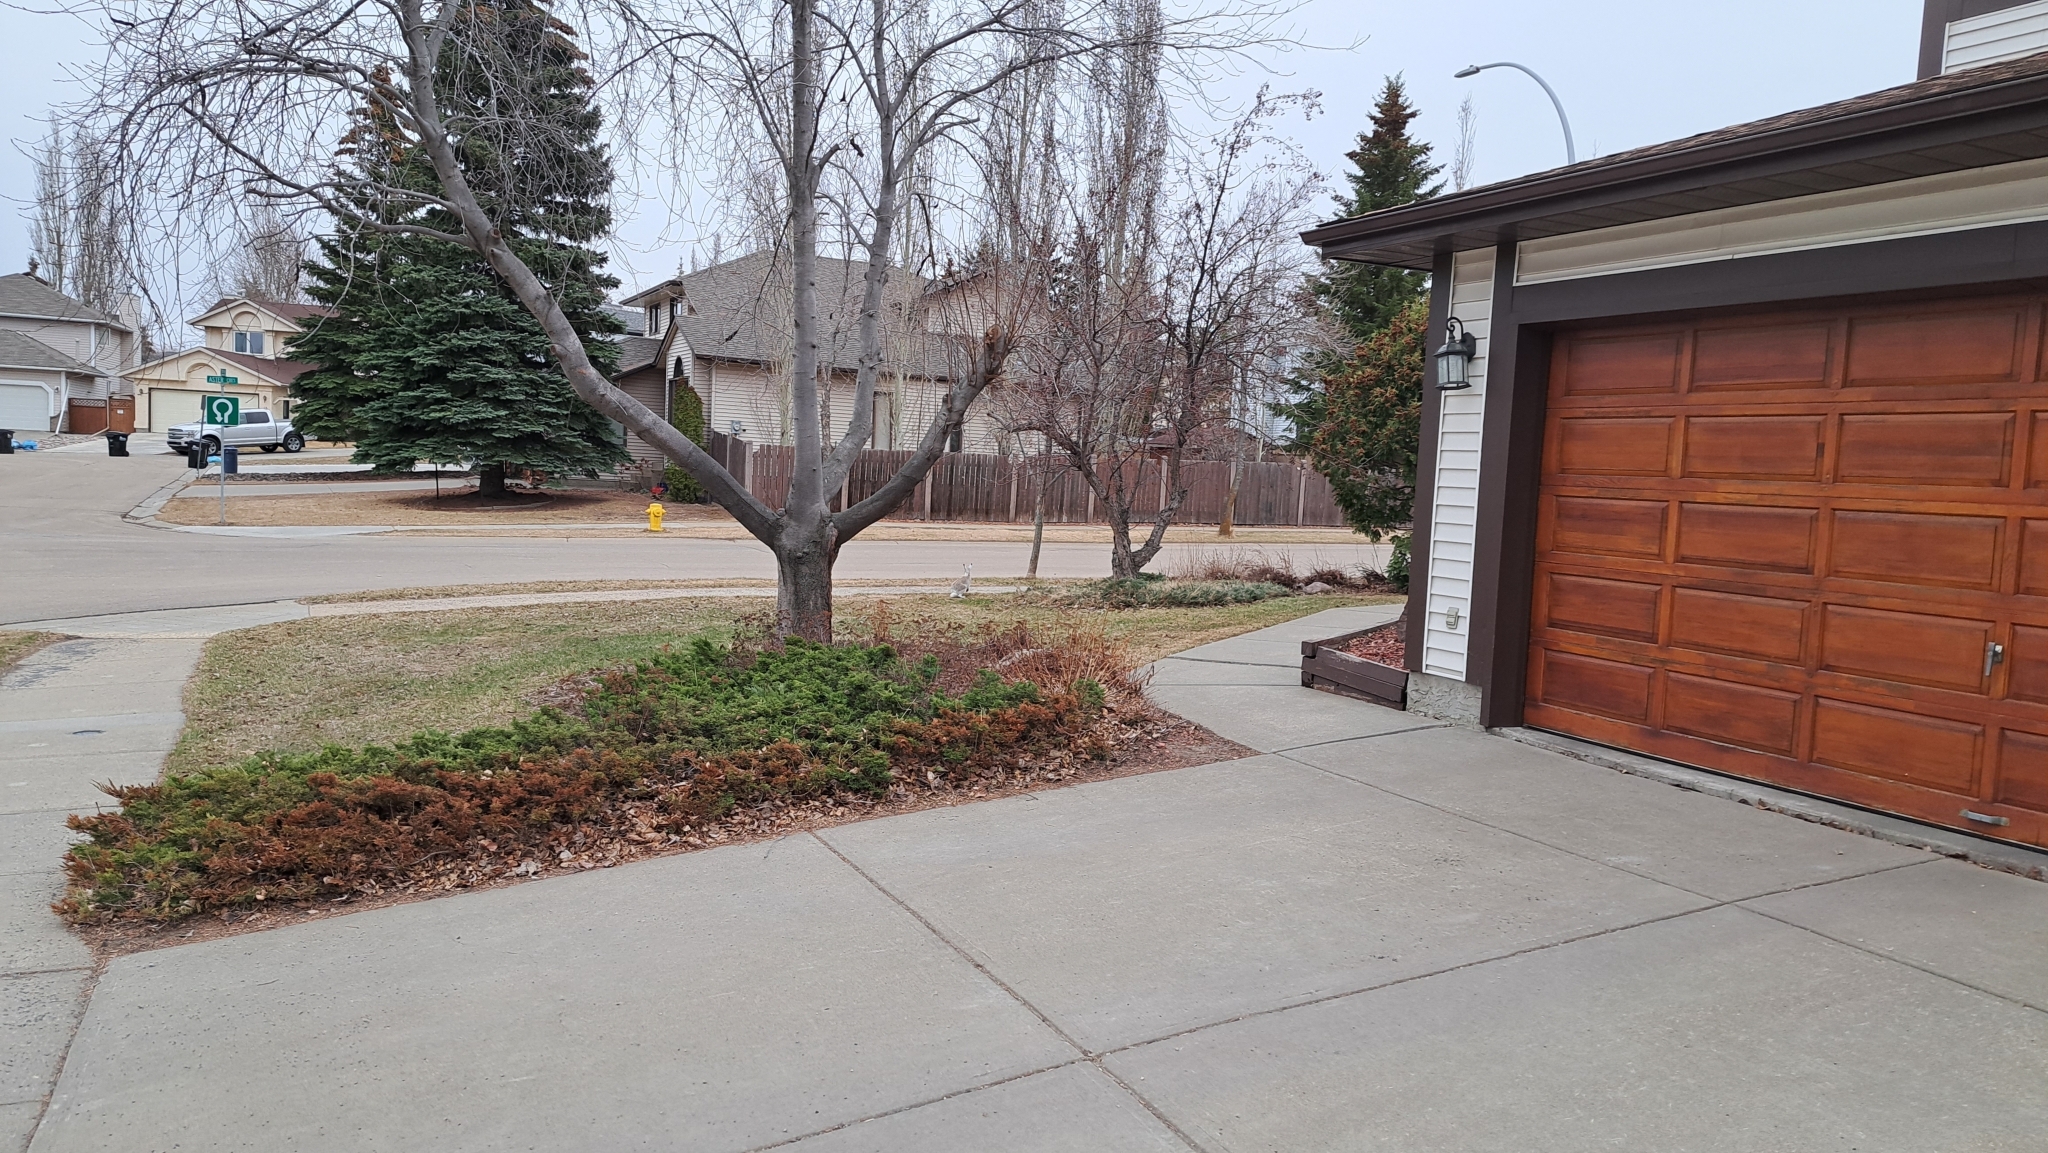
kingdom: Animalia
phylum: Chordata
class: Mammalia
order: Lagomorpha
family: Leporidae
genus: Lepus
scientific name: Lepus townsendii
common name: White-tailed jackrabbit
